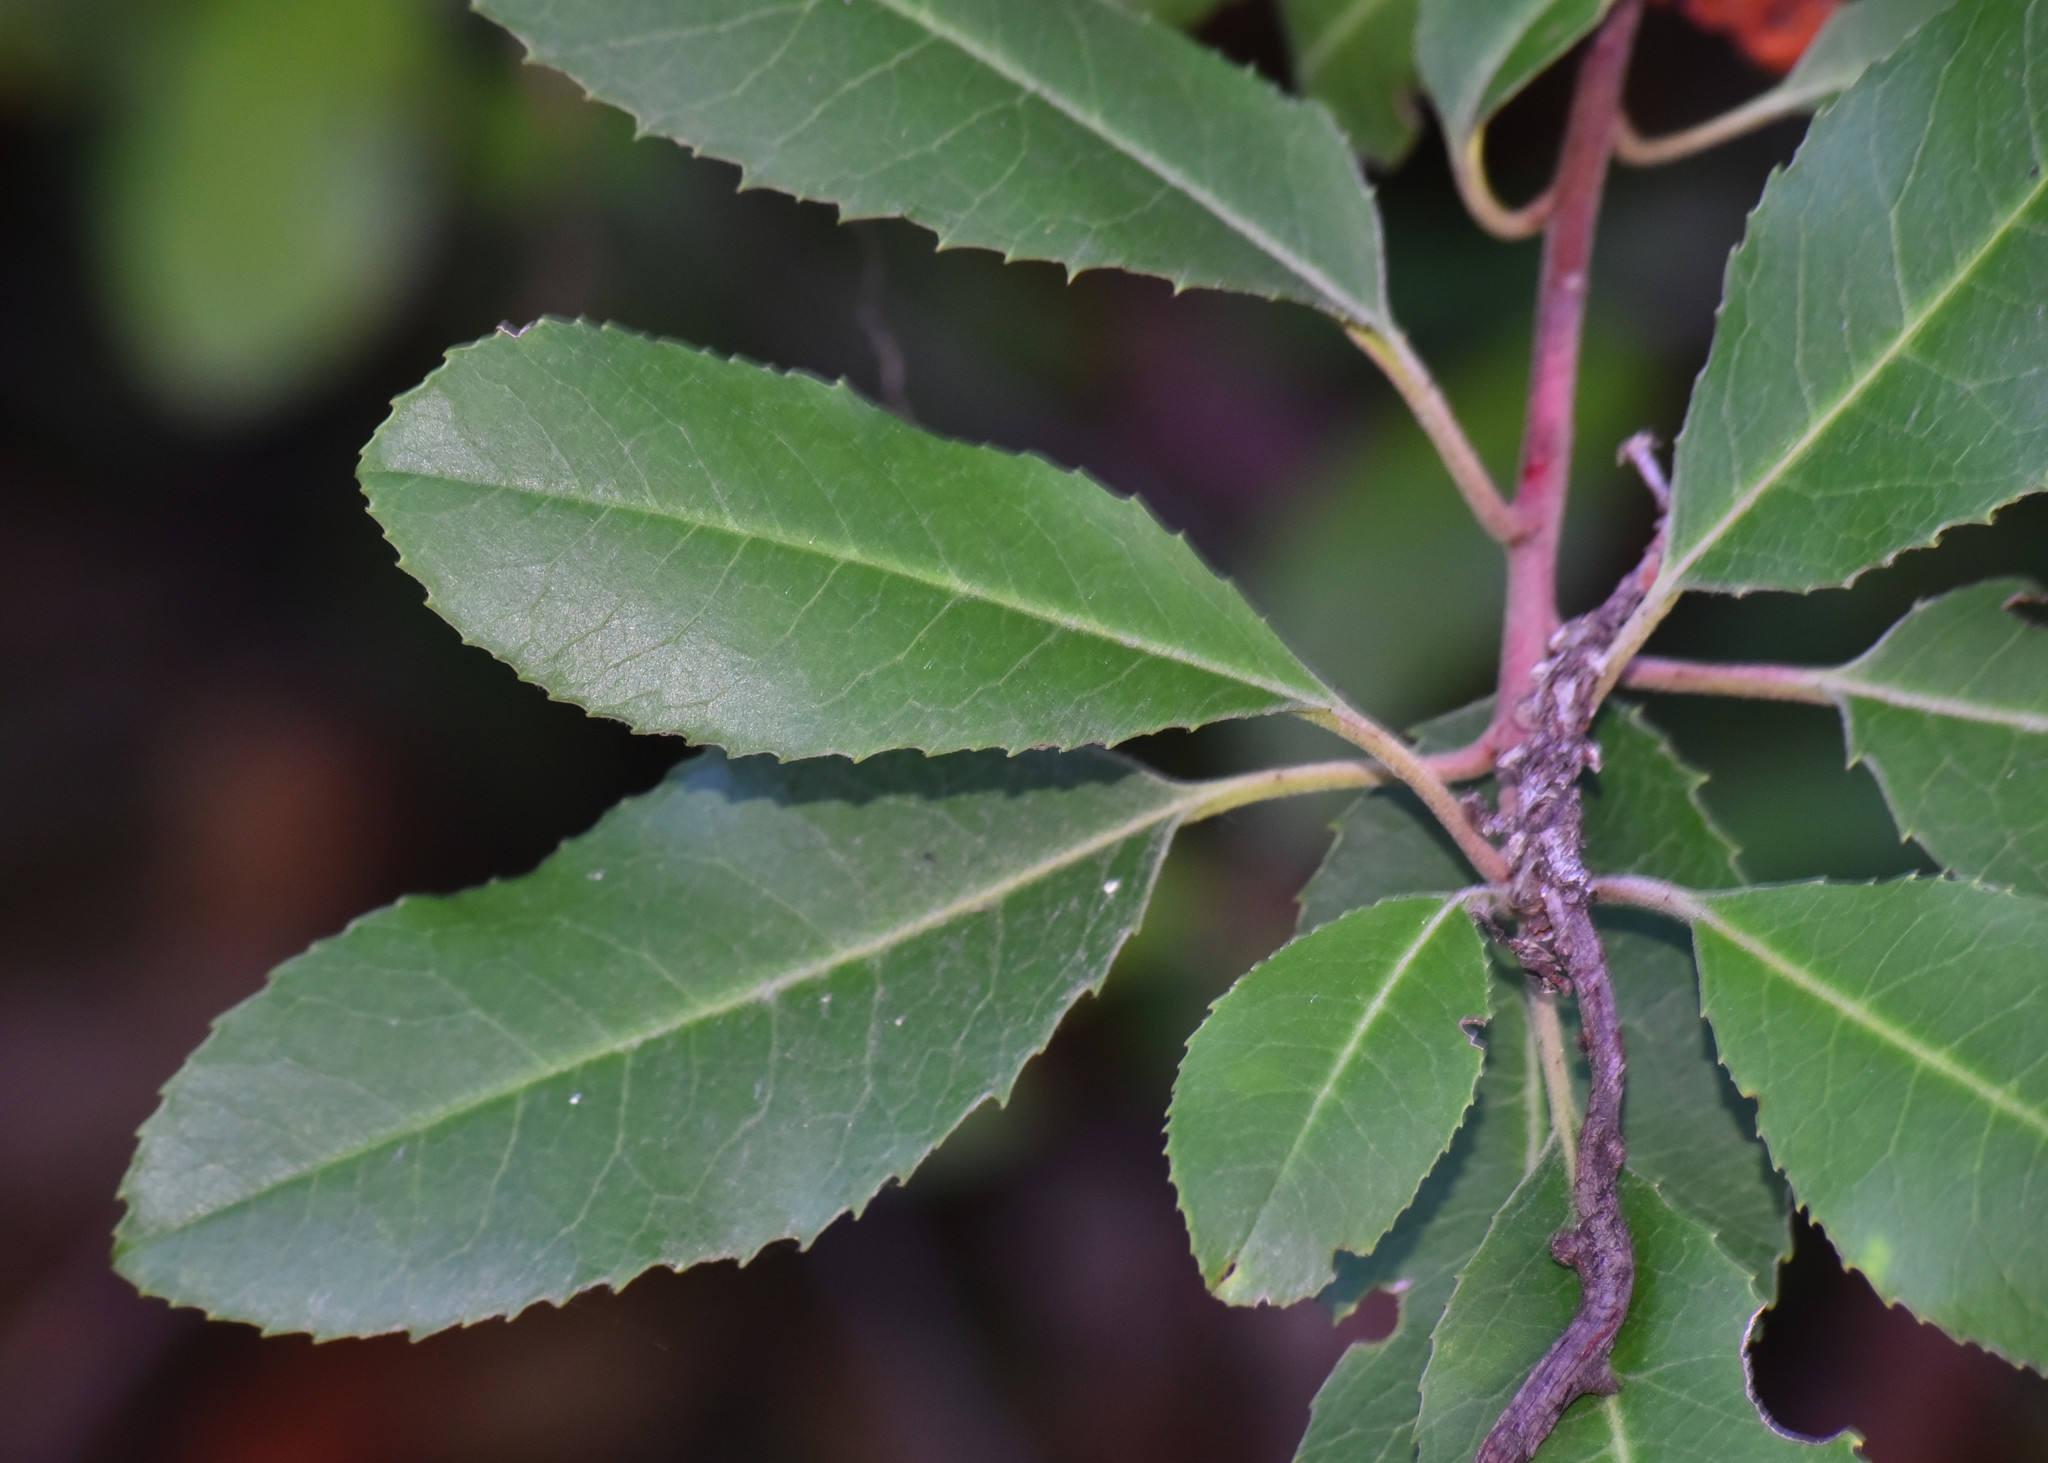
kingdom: Plantae
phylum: Tracheophyta
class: Magnoliopsida
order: Rosales
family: Rosaceae
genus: Heteromeles
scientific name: Heteromeles arbutifolia
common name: California-holly
